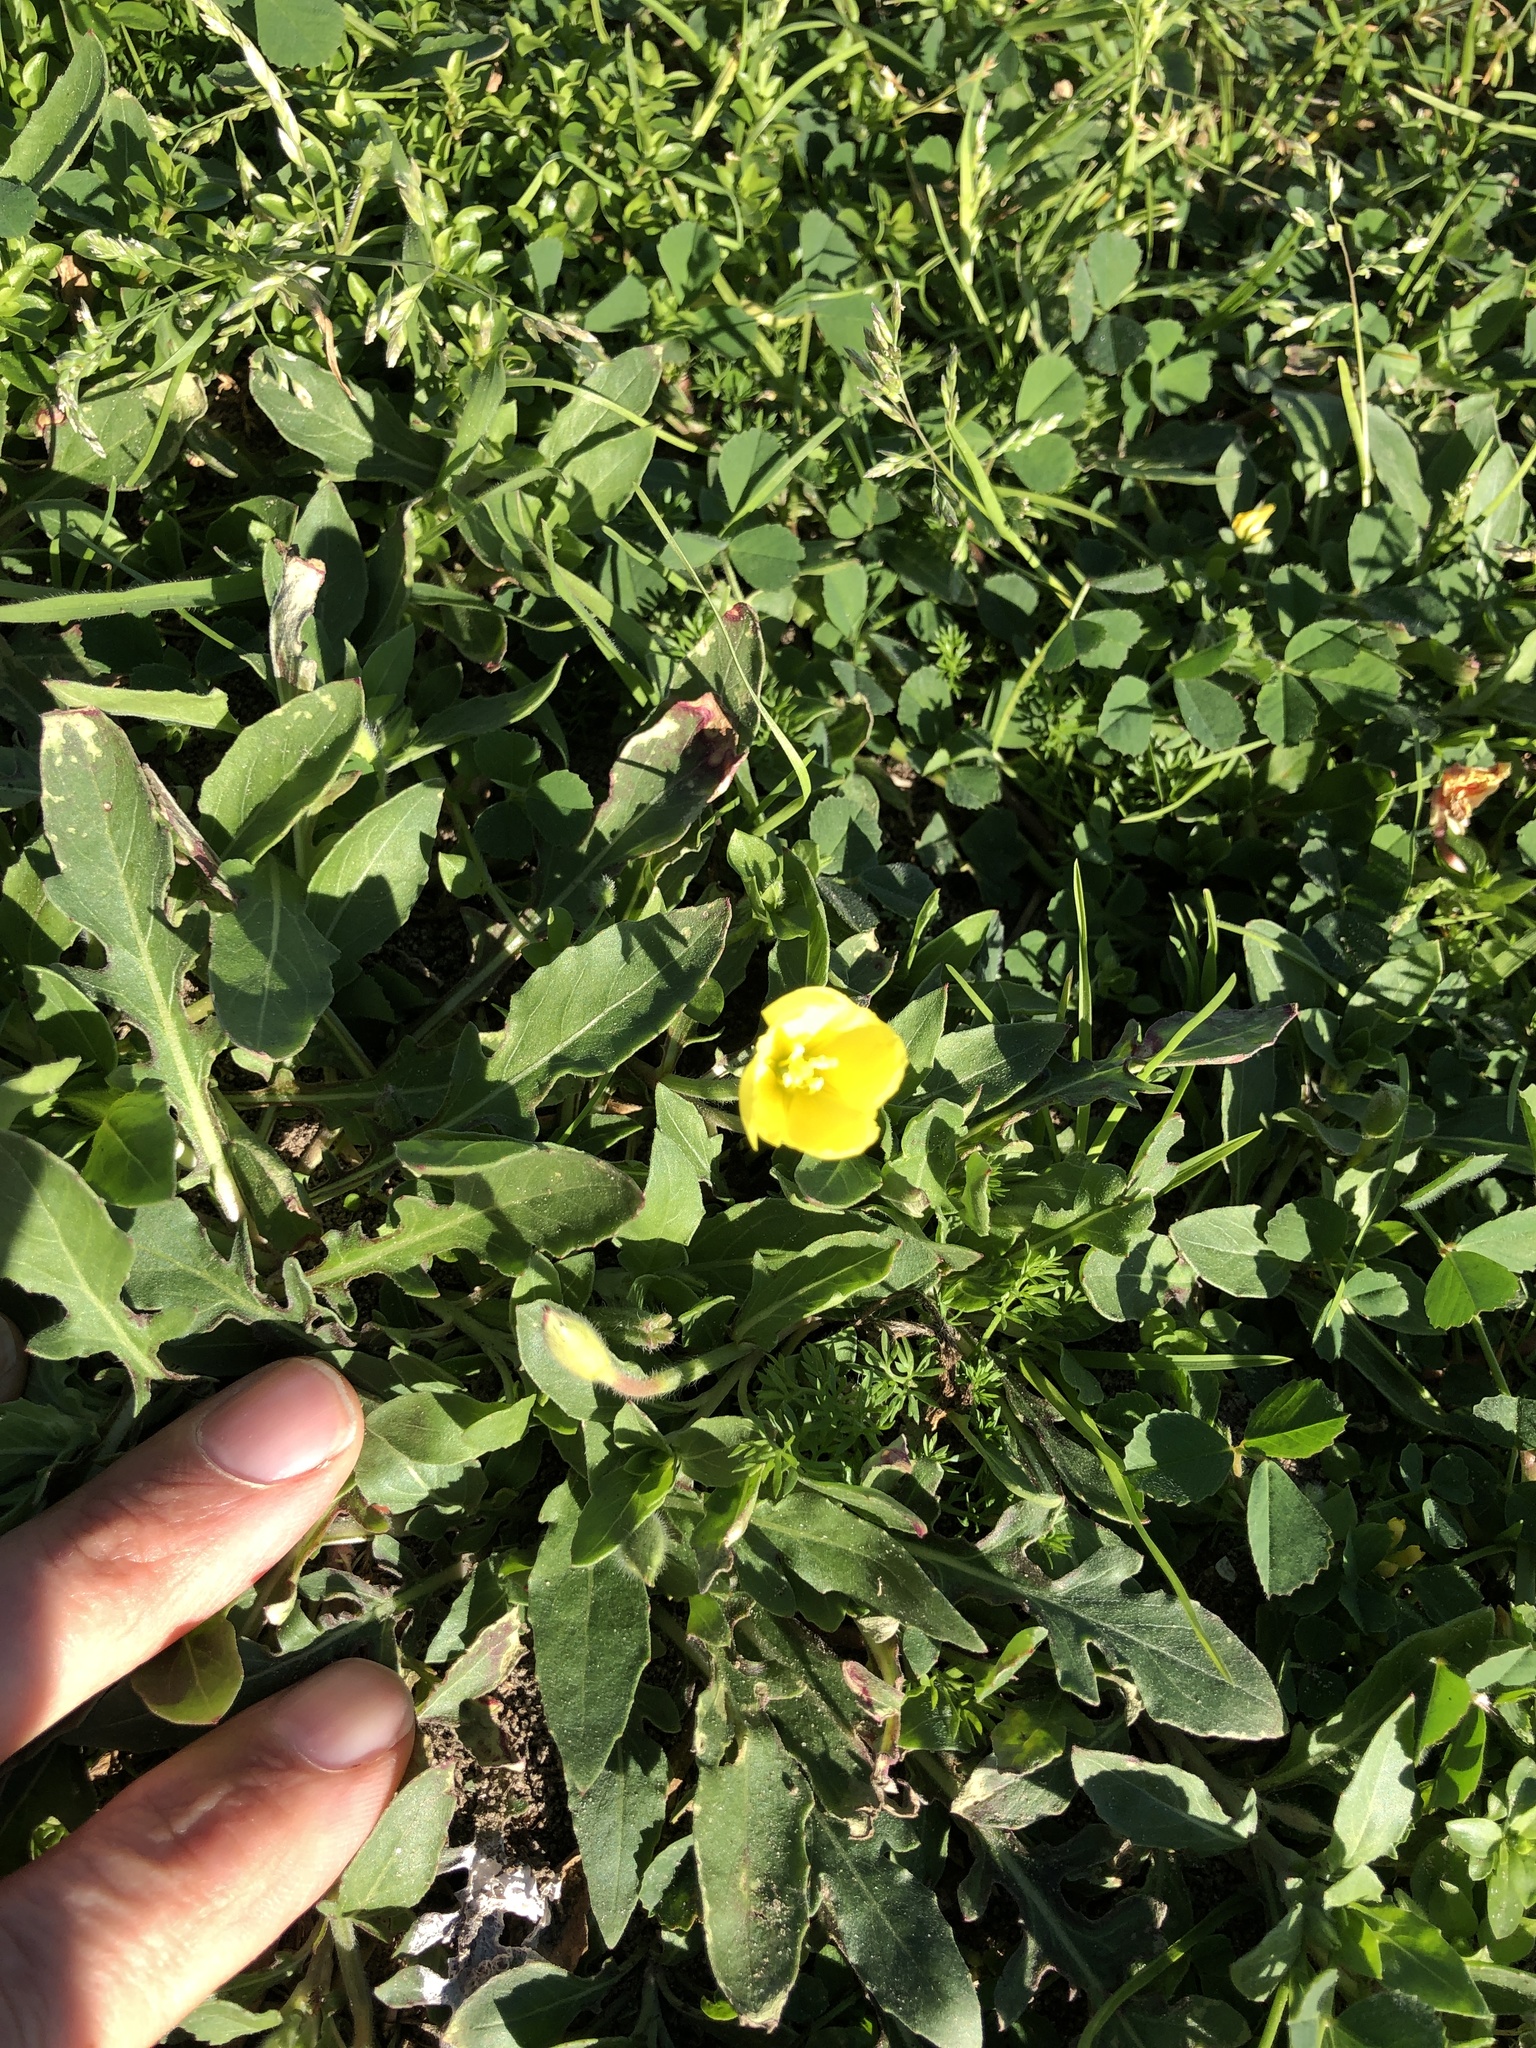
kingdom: Plantae
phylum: Tracheophyta
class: Magnoliopsida
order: Myrtales
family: Onagraceae
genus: Oenothera
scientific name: Oenothera laciniata
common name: Cut-leaved evening-primrose
